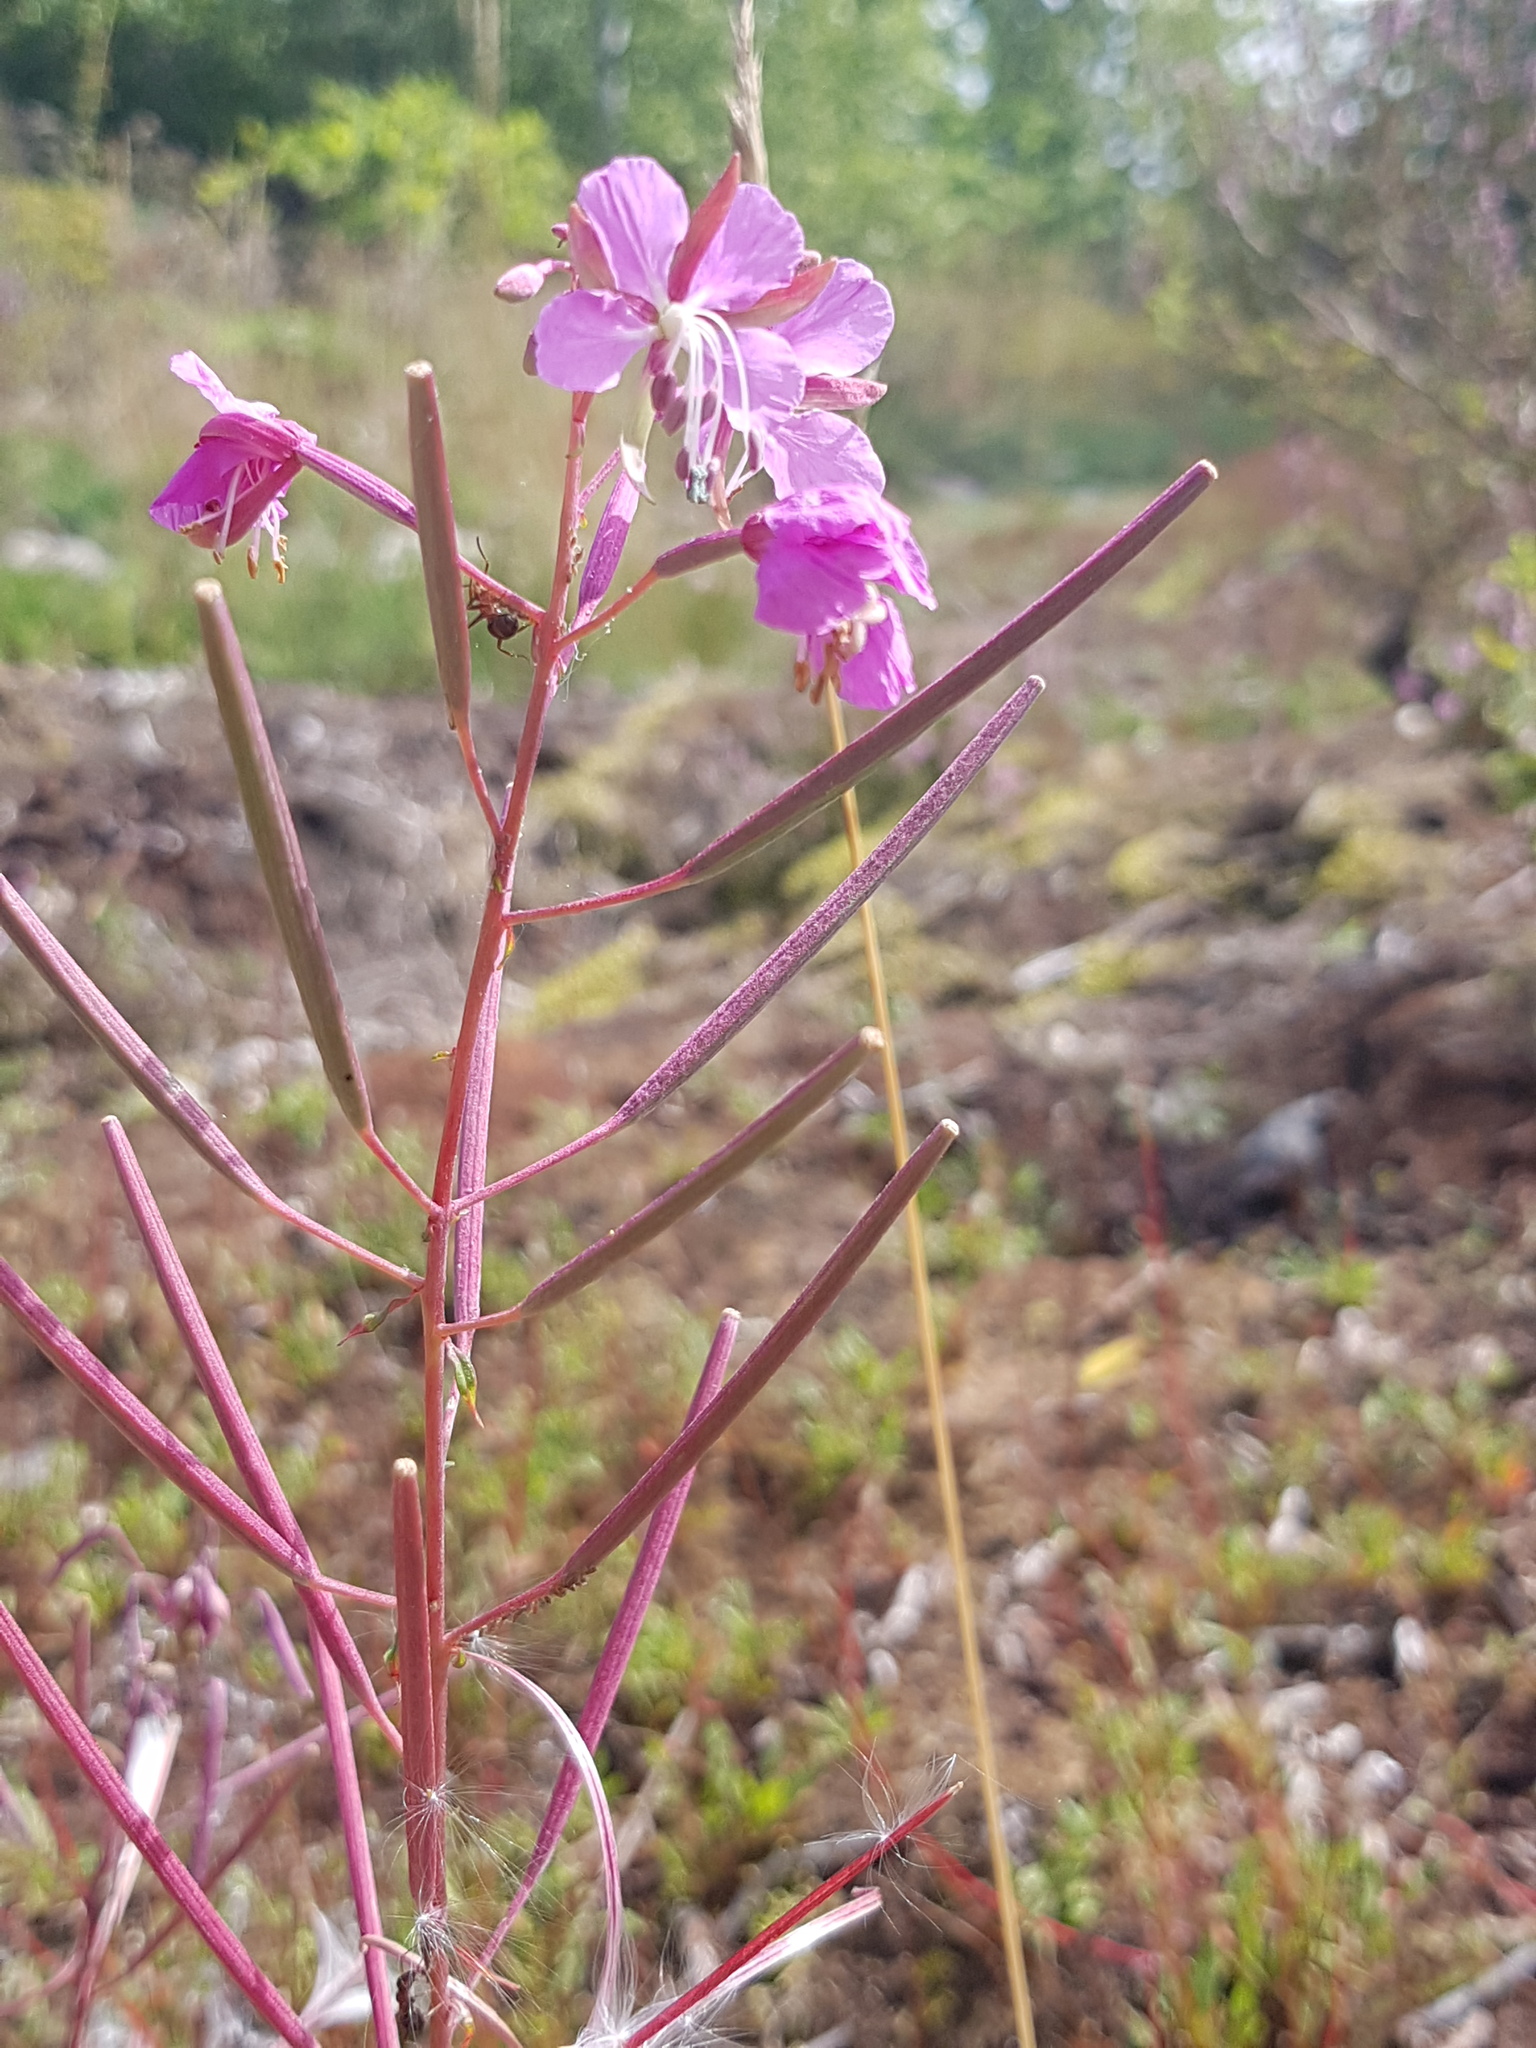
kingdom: Plantae
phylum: Tracheophyta
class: Magnoliopsida
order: Myrtales
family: Onagraceae
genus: Chamaenerion
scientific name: Chamaenerion angustifolium
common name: Fireweed
